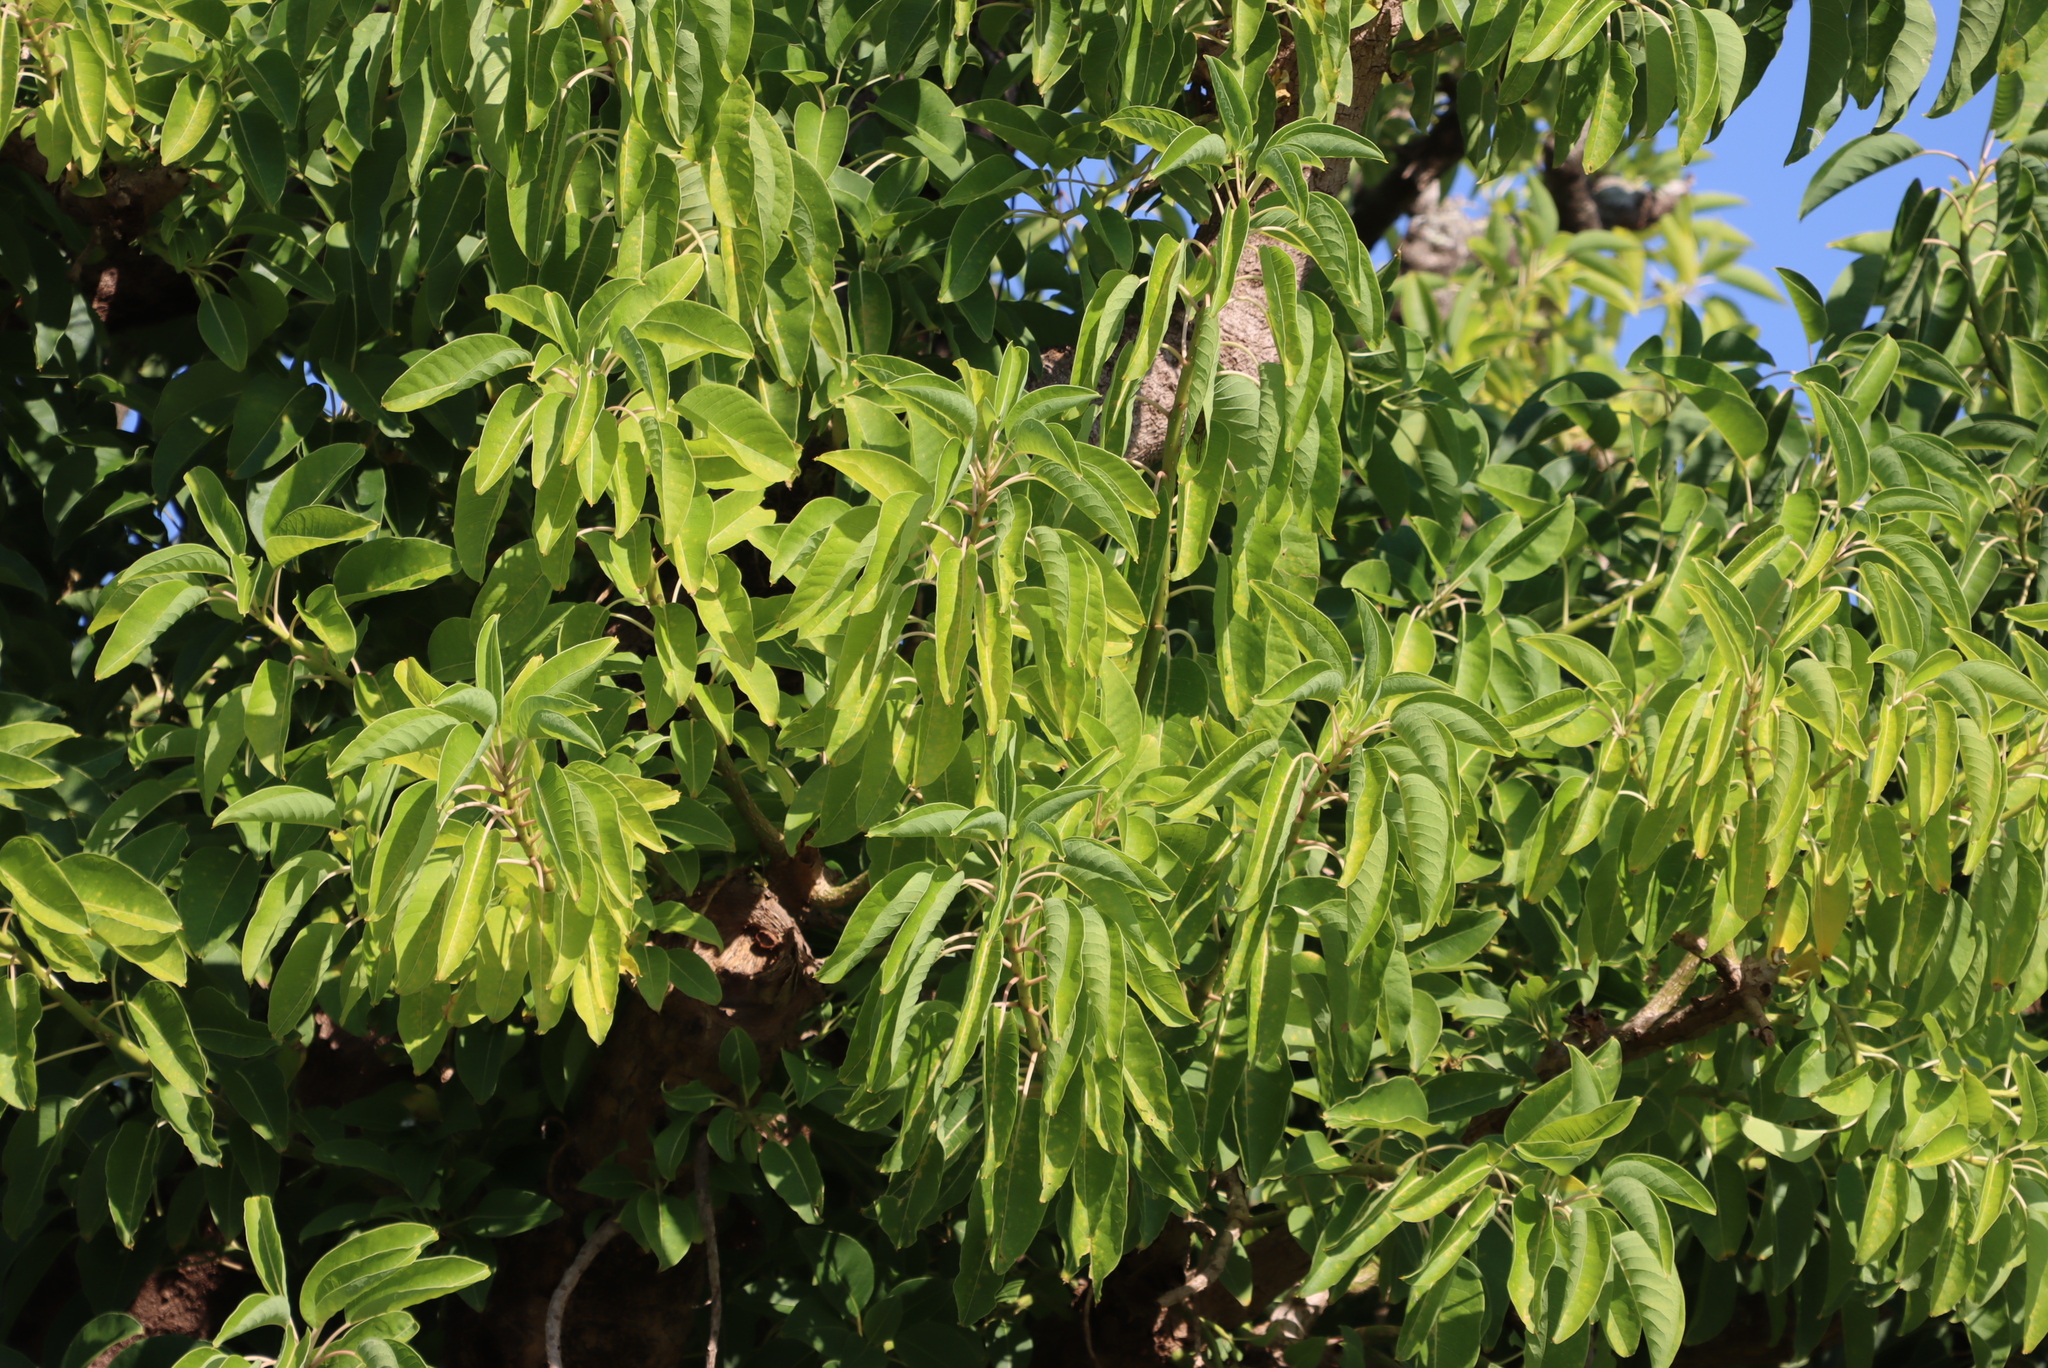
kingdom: Plantae
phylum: Tracheophyta
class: Magnoliopsida
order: Caryophyllales
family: Phytolaccaceae
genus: Phytolacca
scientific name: Phytolacca dioica
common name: Pokeweed
